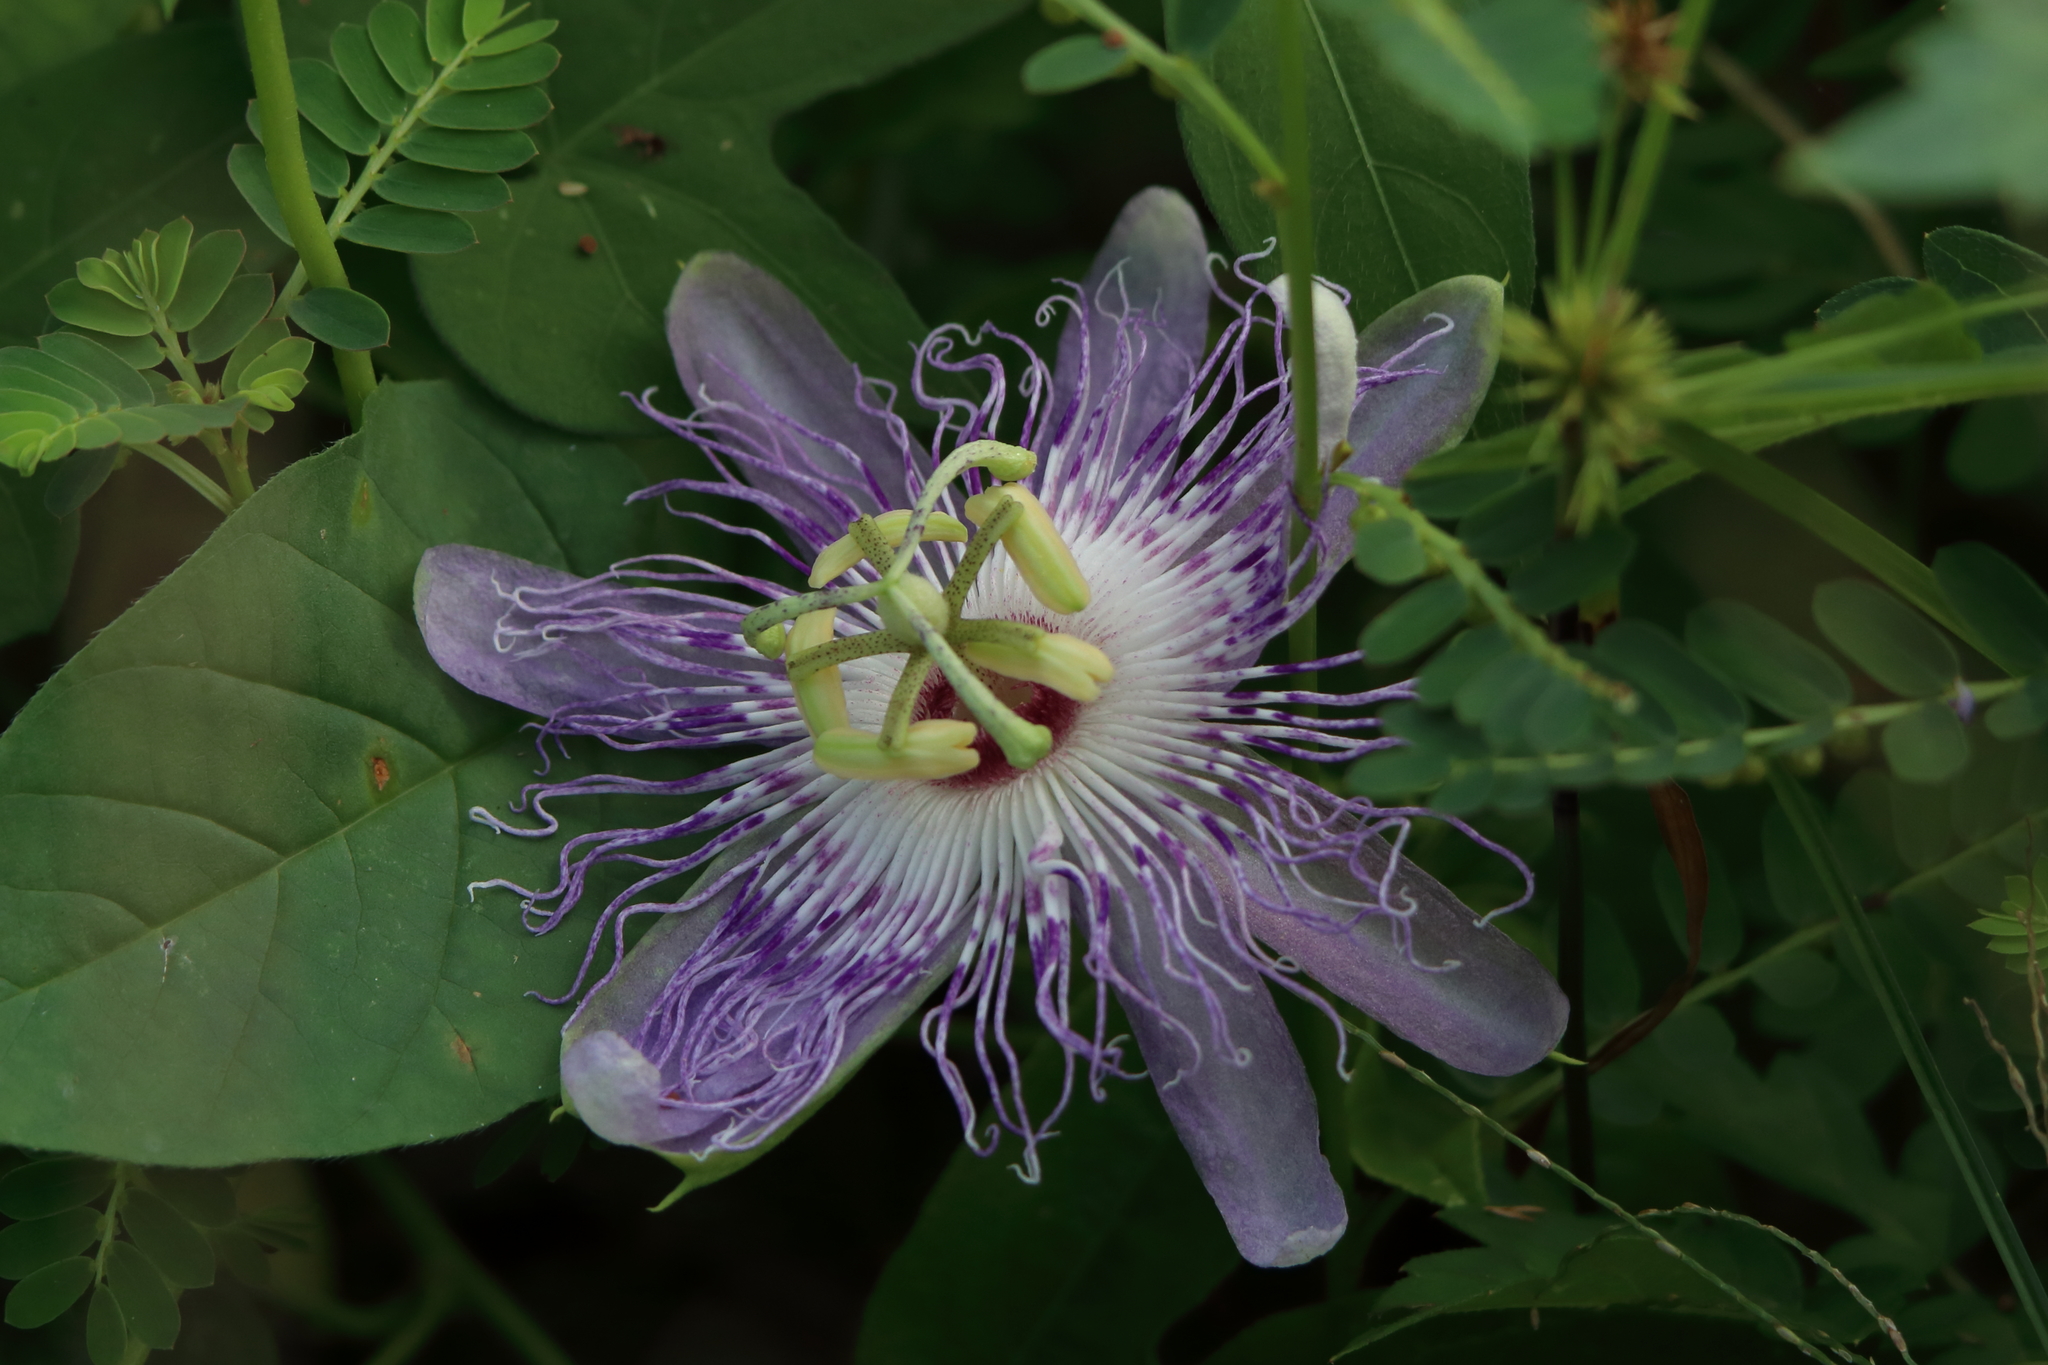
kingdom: Plantae
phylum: Tracheophyta
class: Magnoliopsida
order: Malpighiales
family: Passifloraceae
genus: Passiflora
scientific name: Passiflora incarnata
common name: Apricot-vine
